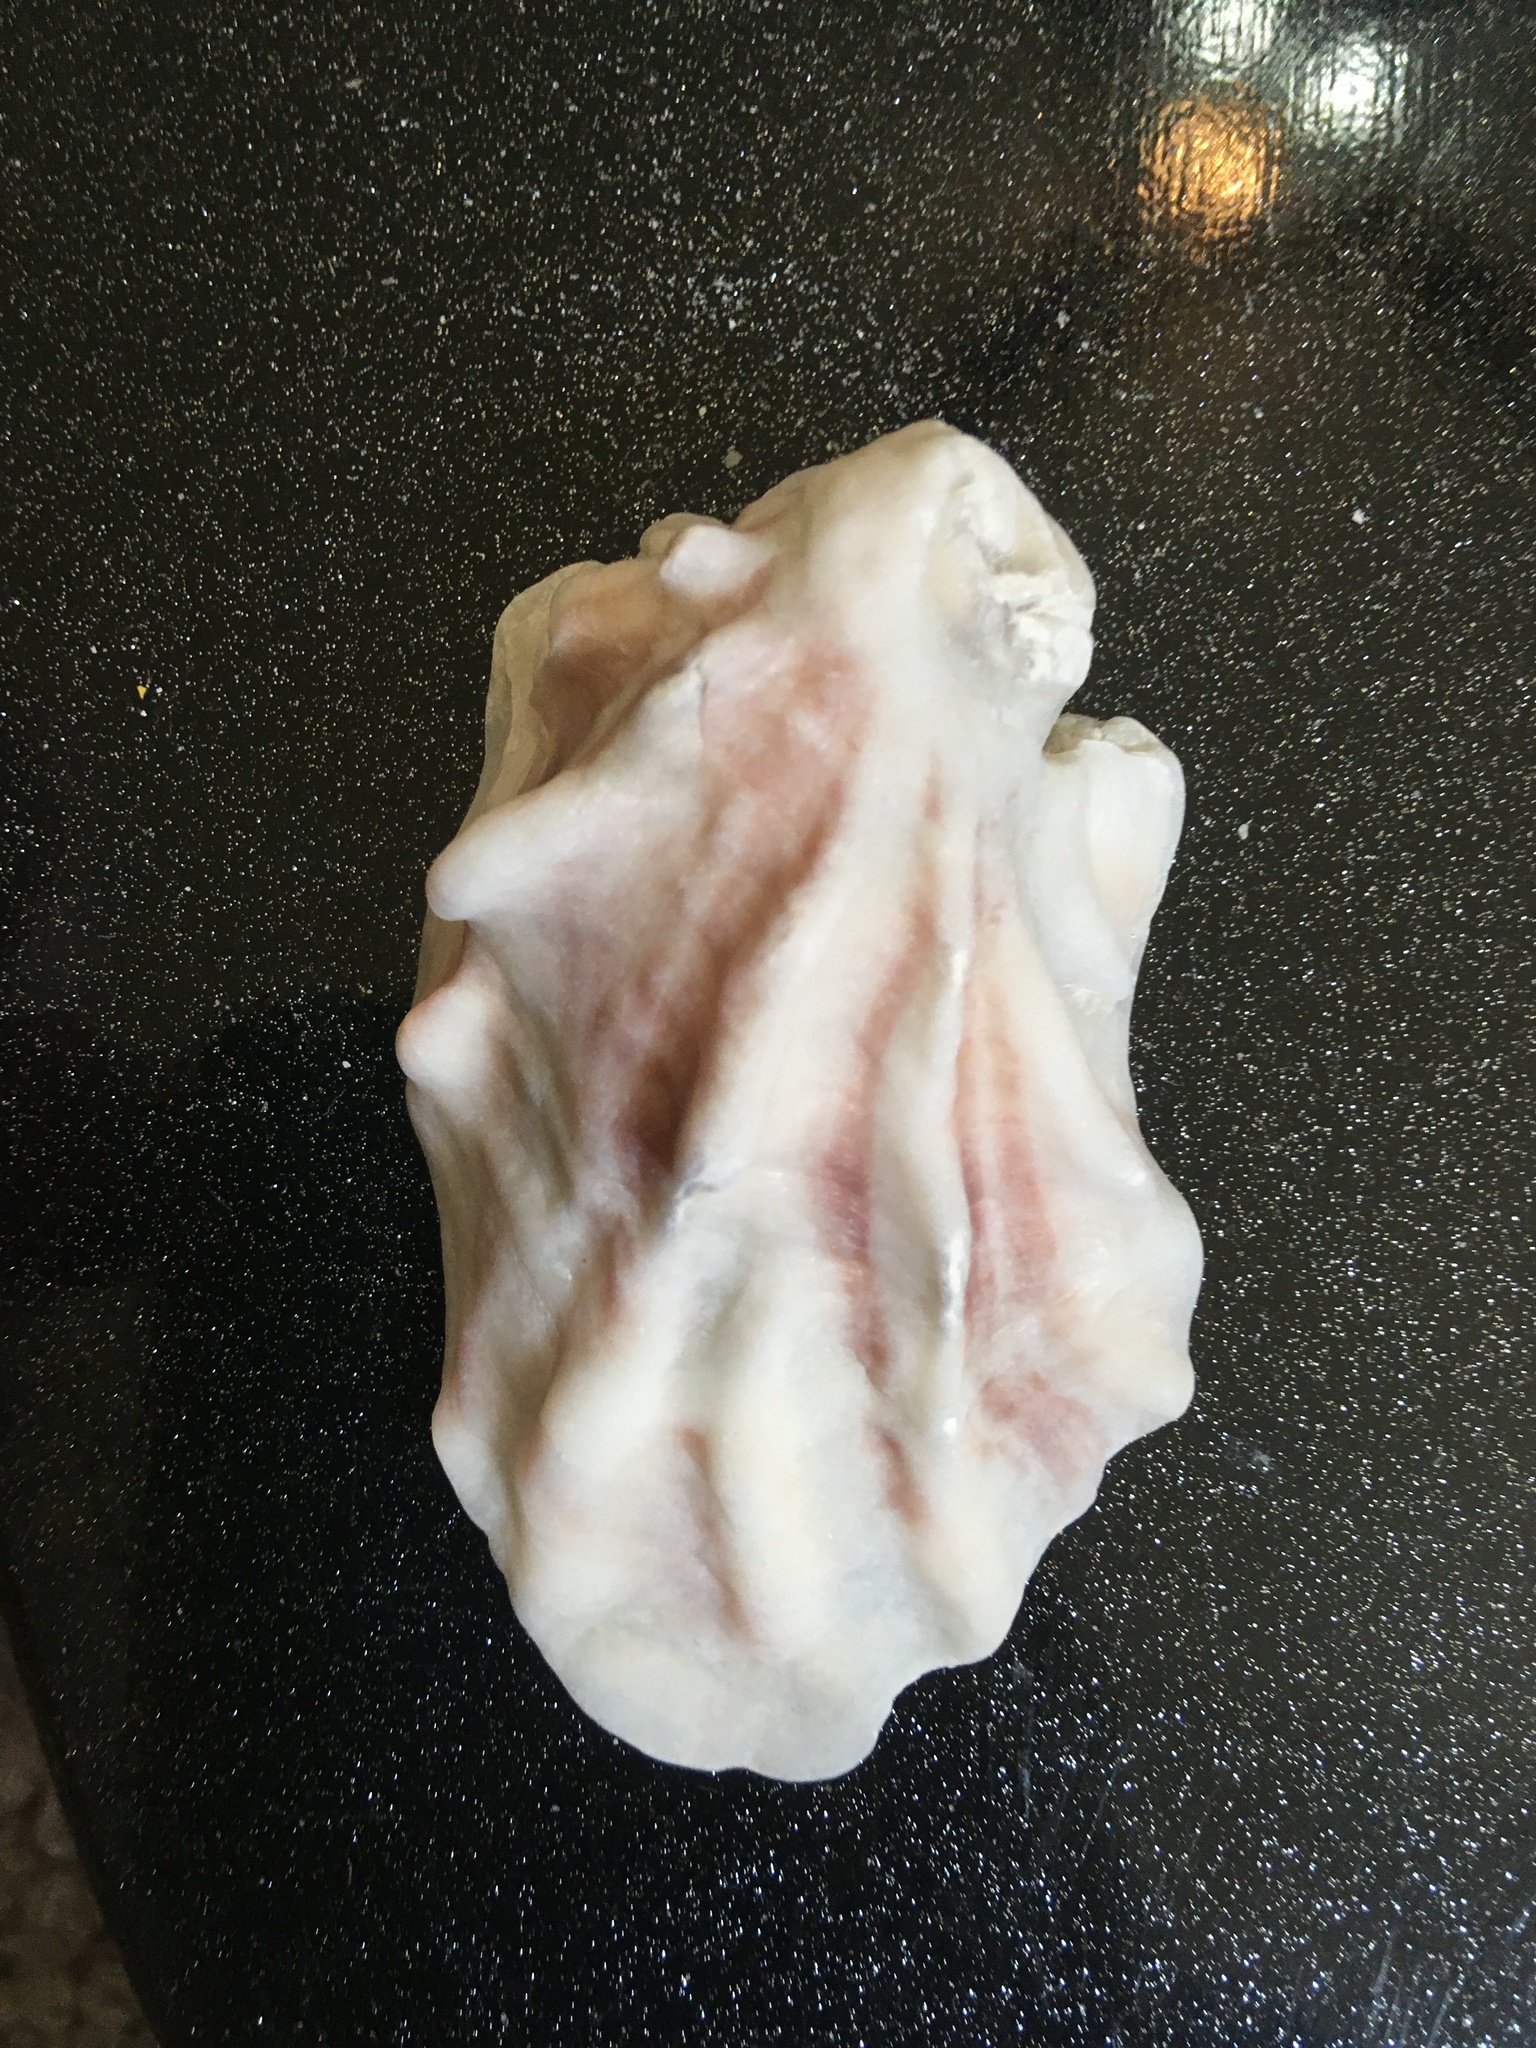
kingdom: Animalia
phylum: Mollusca
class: Bivalvia
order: Ostreida
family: Ostreidae
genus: Crassostrea
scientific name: Crassostrea virginica
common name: American oyster
